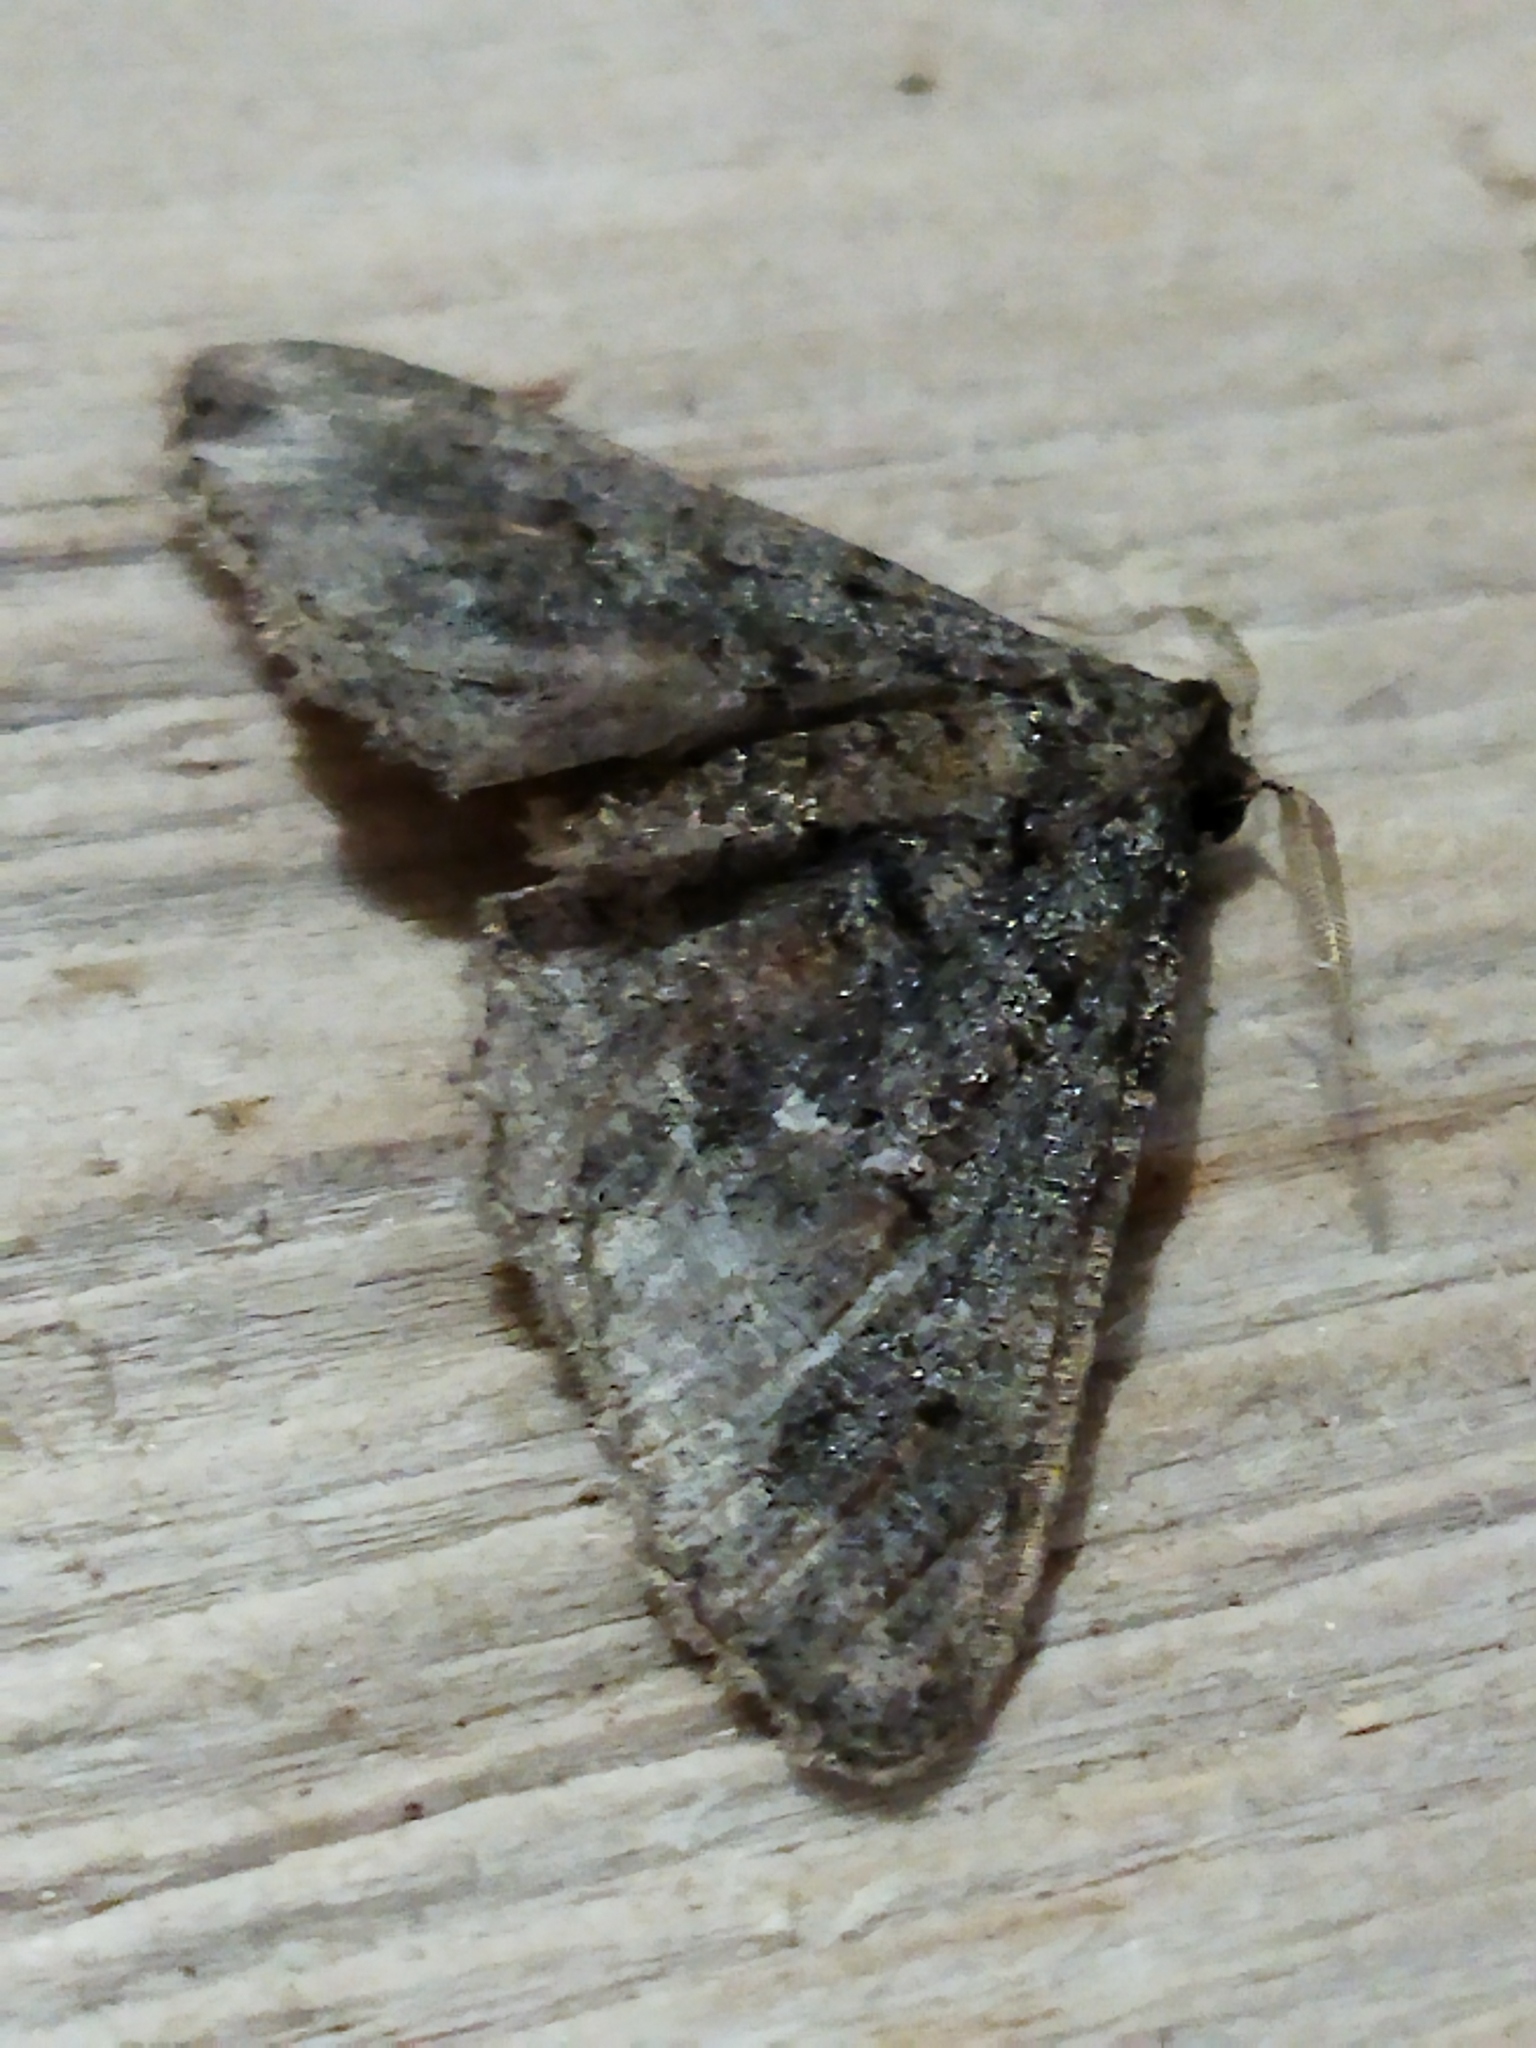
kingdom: Animalia
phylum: Arthropoda
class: Insecta
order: Lepidoptera
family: Geometridae
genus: Agriopis
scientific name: Agriopis bajaria
